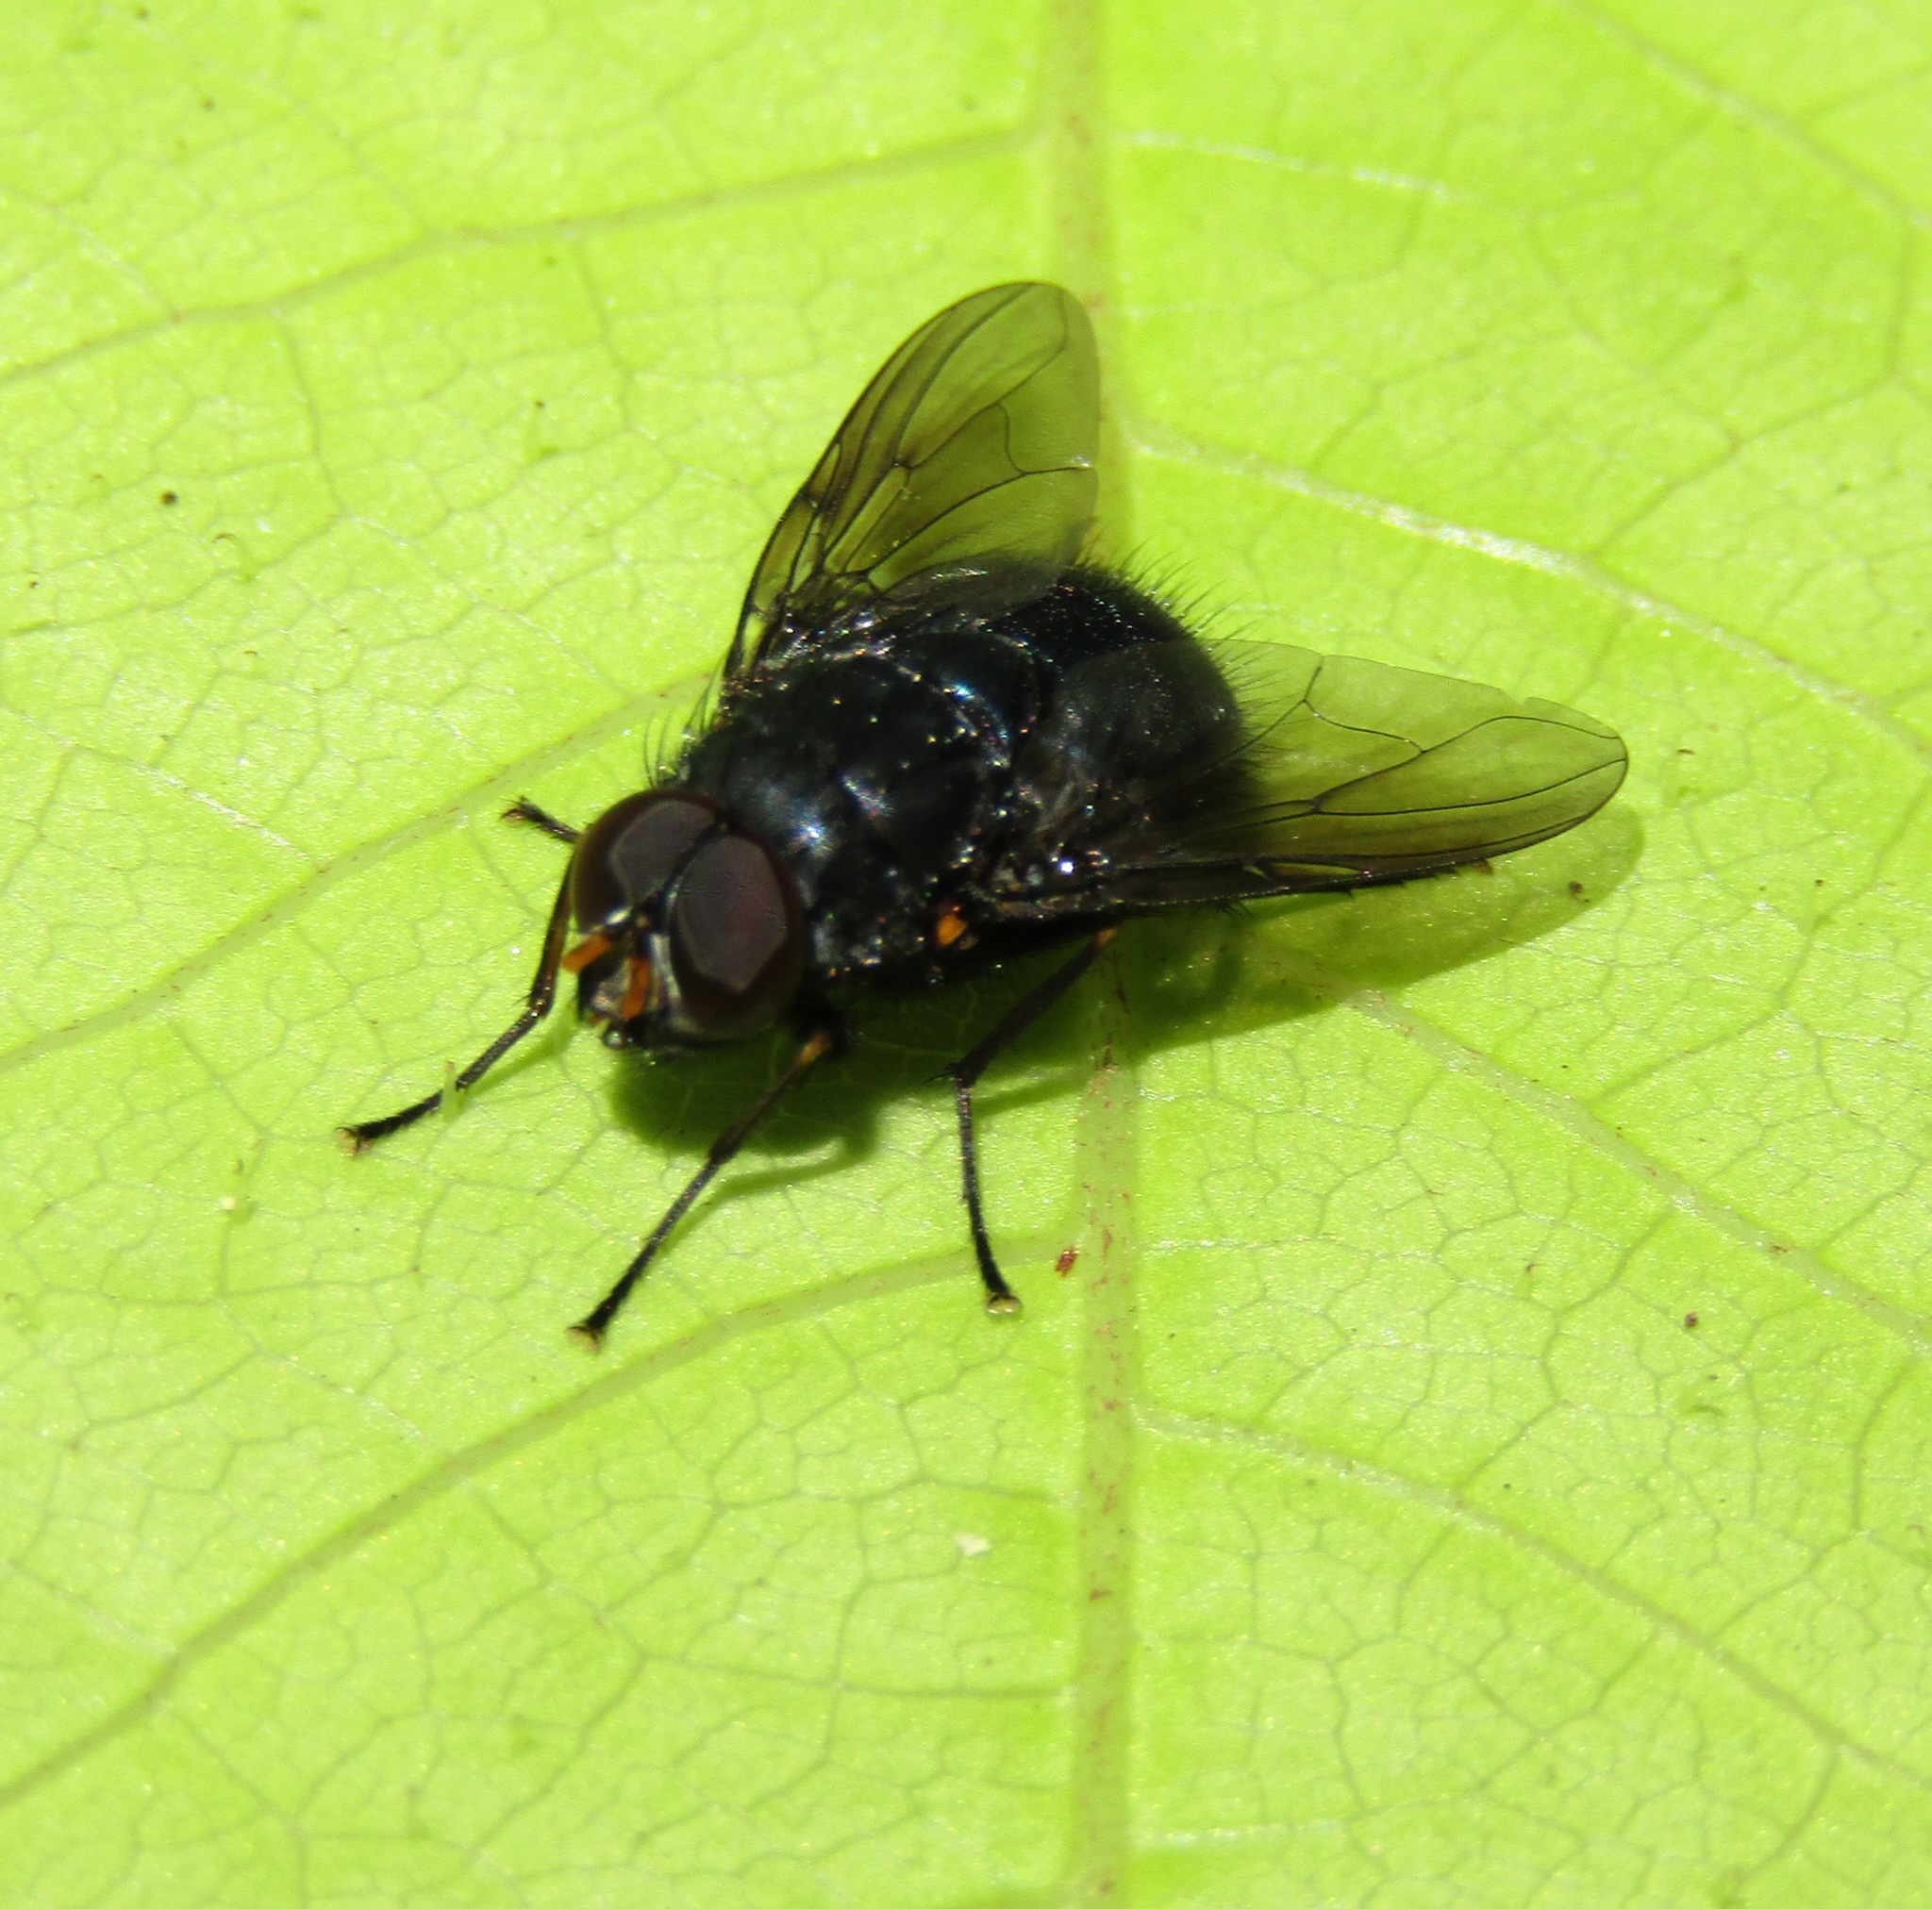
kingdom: Animalia
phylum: Arthropoda
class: Insecta
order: Diptera
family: Muscidae
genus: Calliphoroides
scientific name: Calliphoroides antennatis
